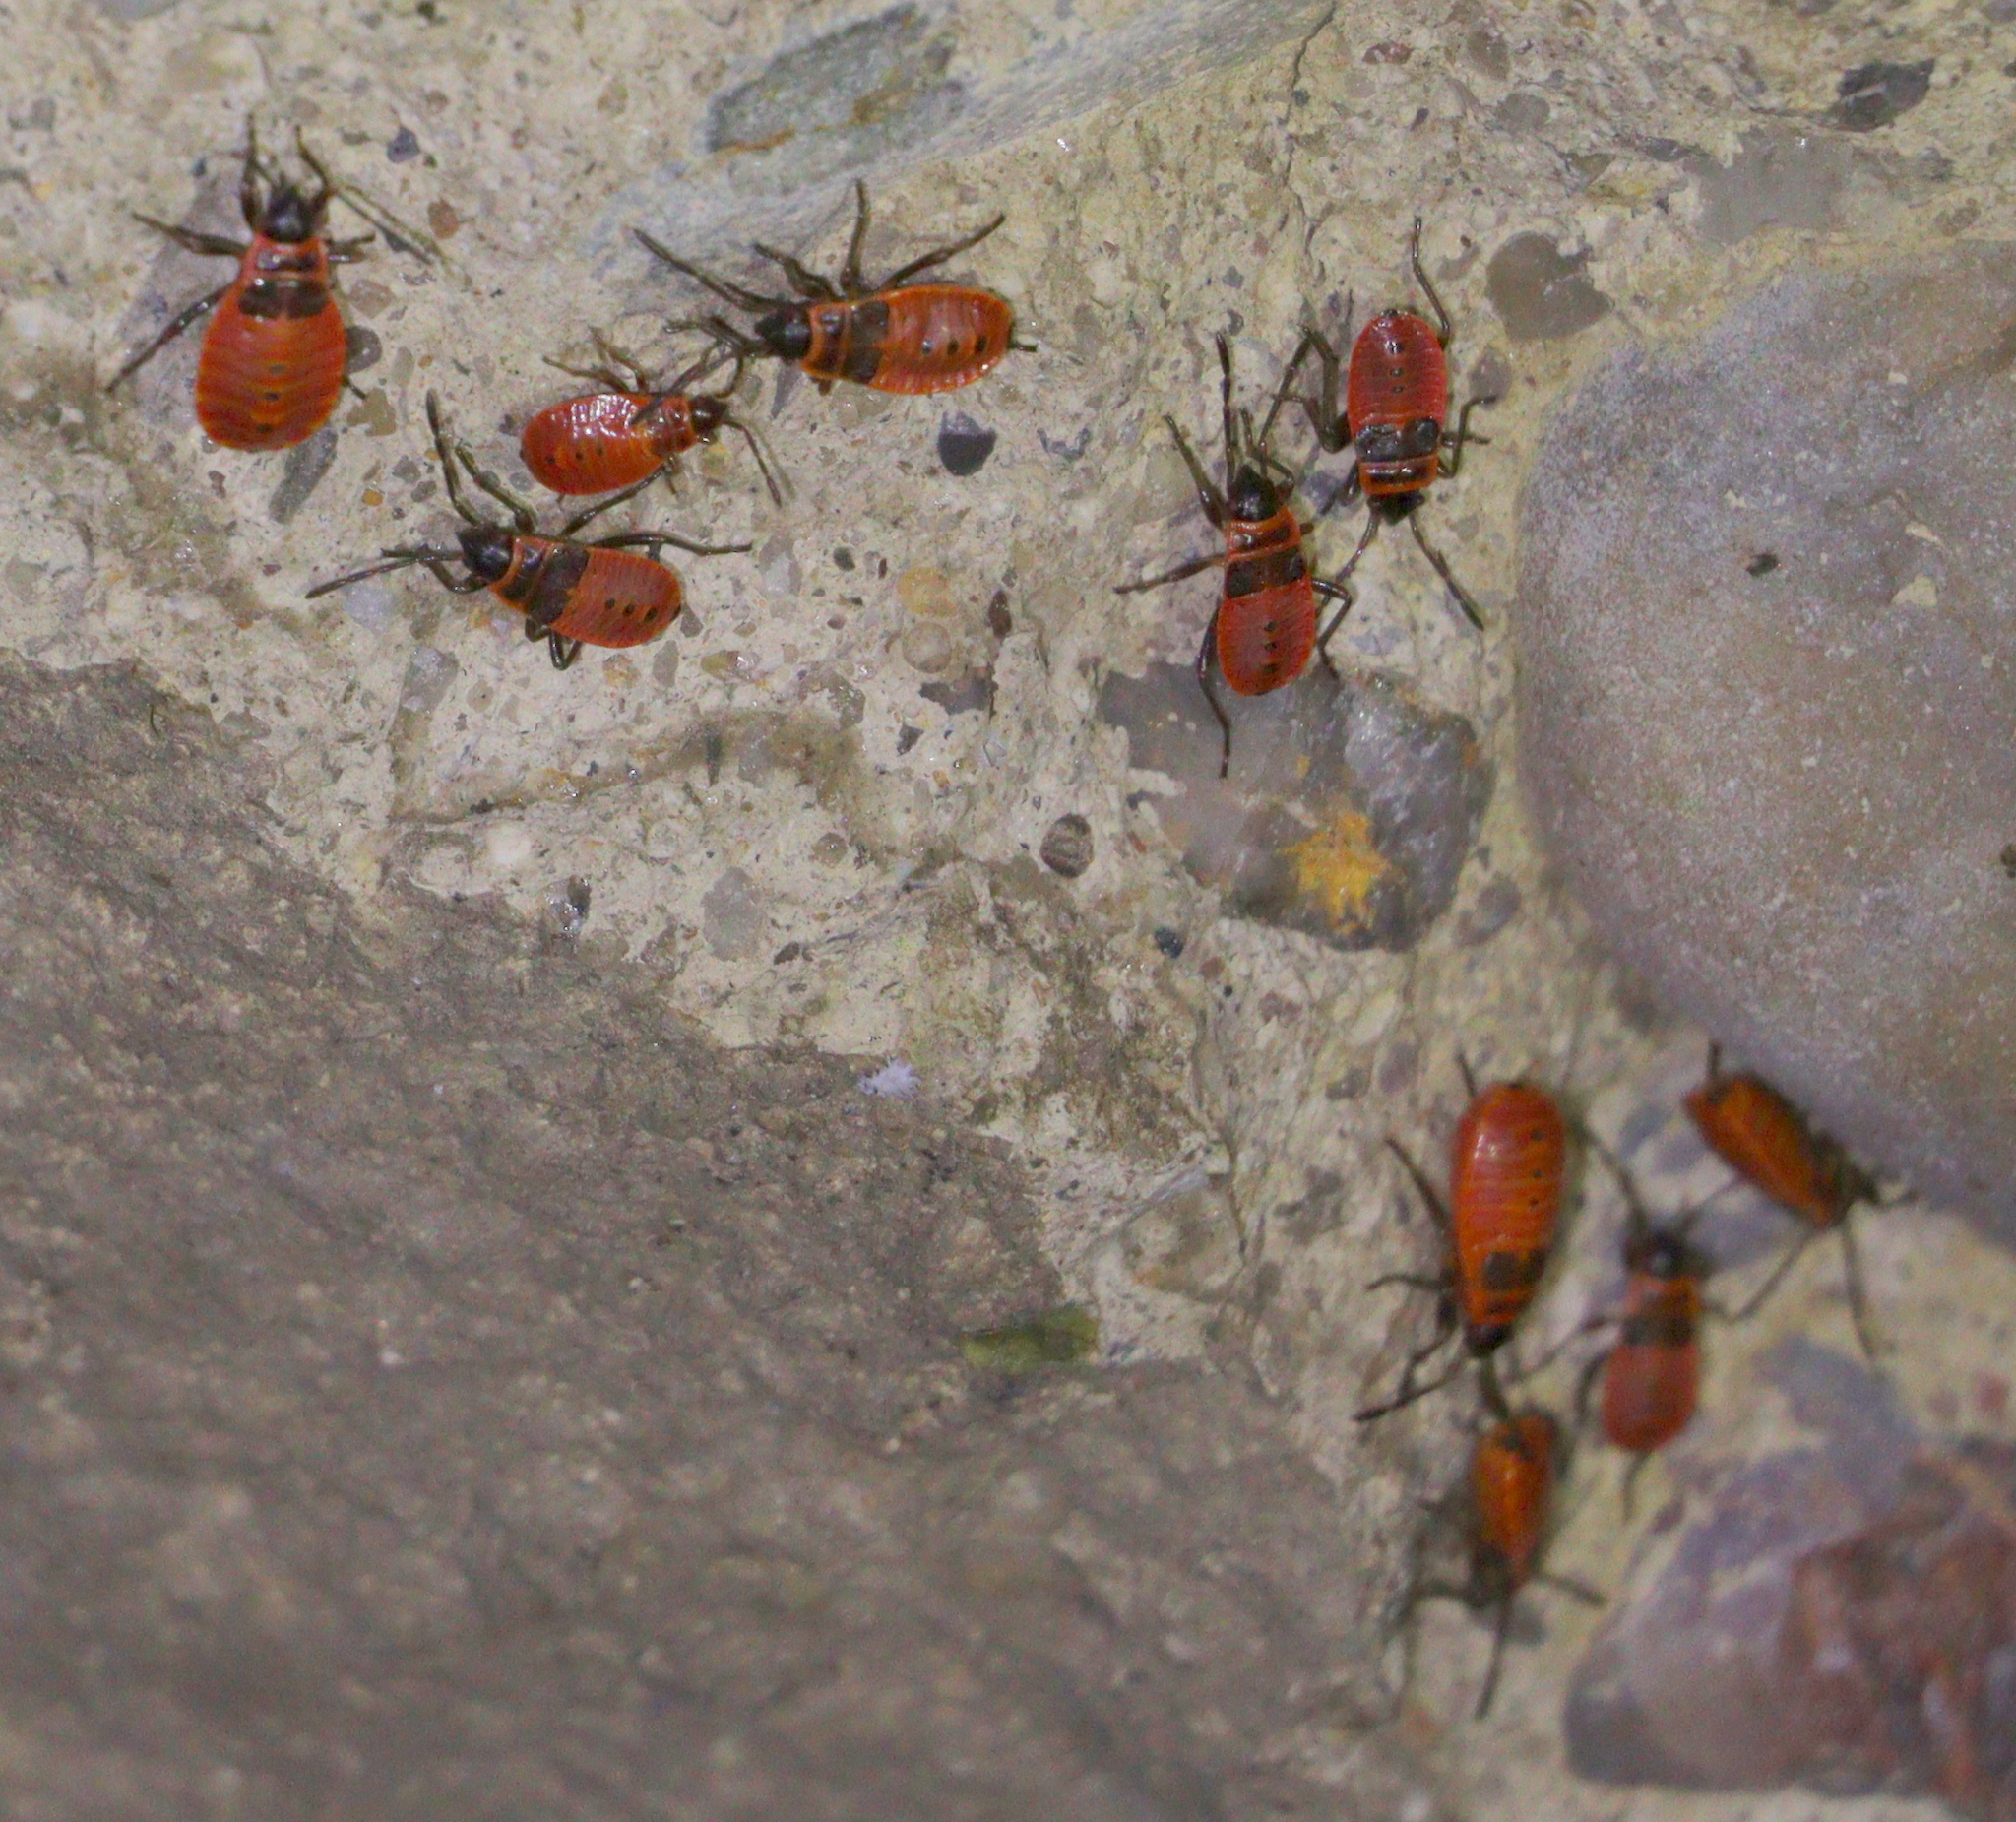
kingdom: Animalia
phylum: Arthropoda
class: Insecta
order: Hemiptera
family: Pyrrhocoridae
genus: Pyrrhocoris
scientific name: Pyrrhocoris apterus
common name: Firebug
